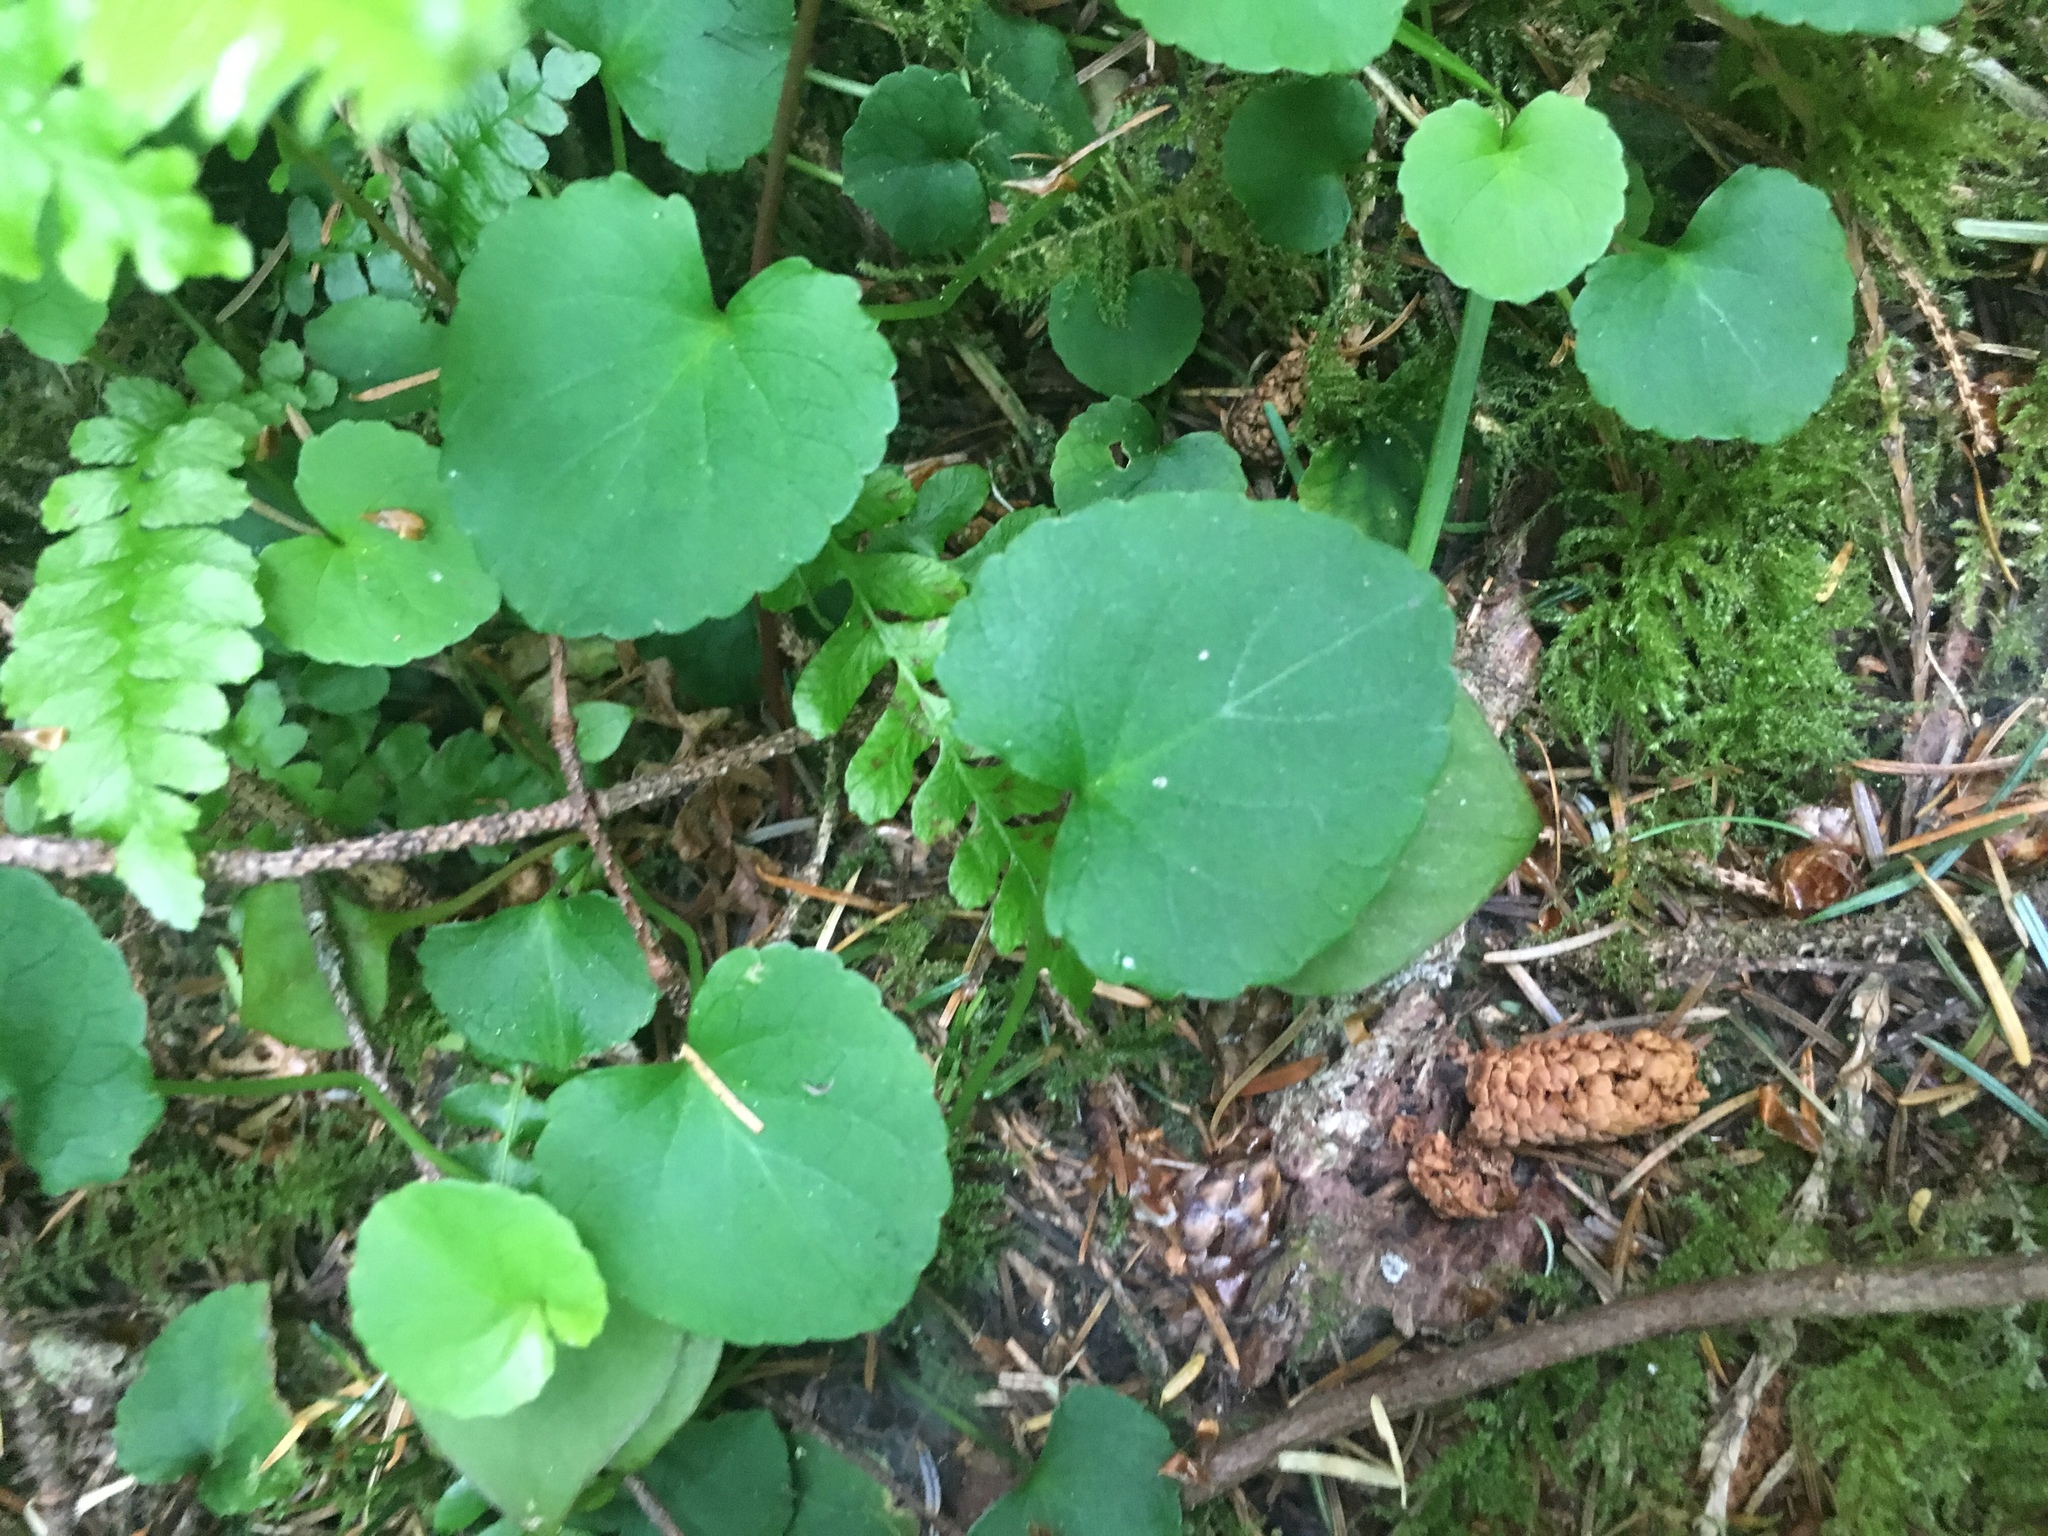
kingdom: Plantae
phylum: Tracheophyta
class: Magnoliopsida
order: Malpighiales
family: Violaceae
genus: Viola
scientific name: Viola sempervirens
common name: Evergreen violet
